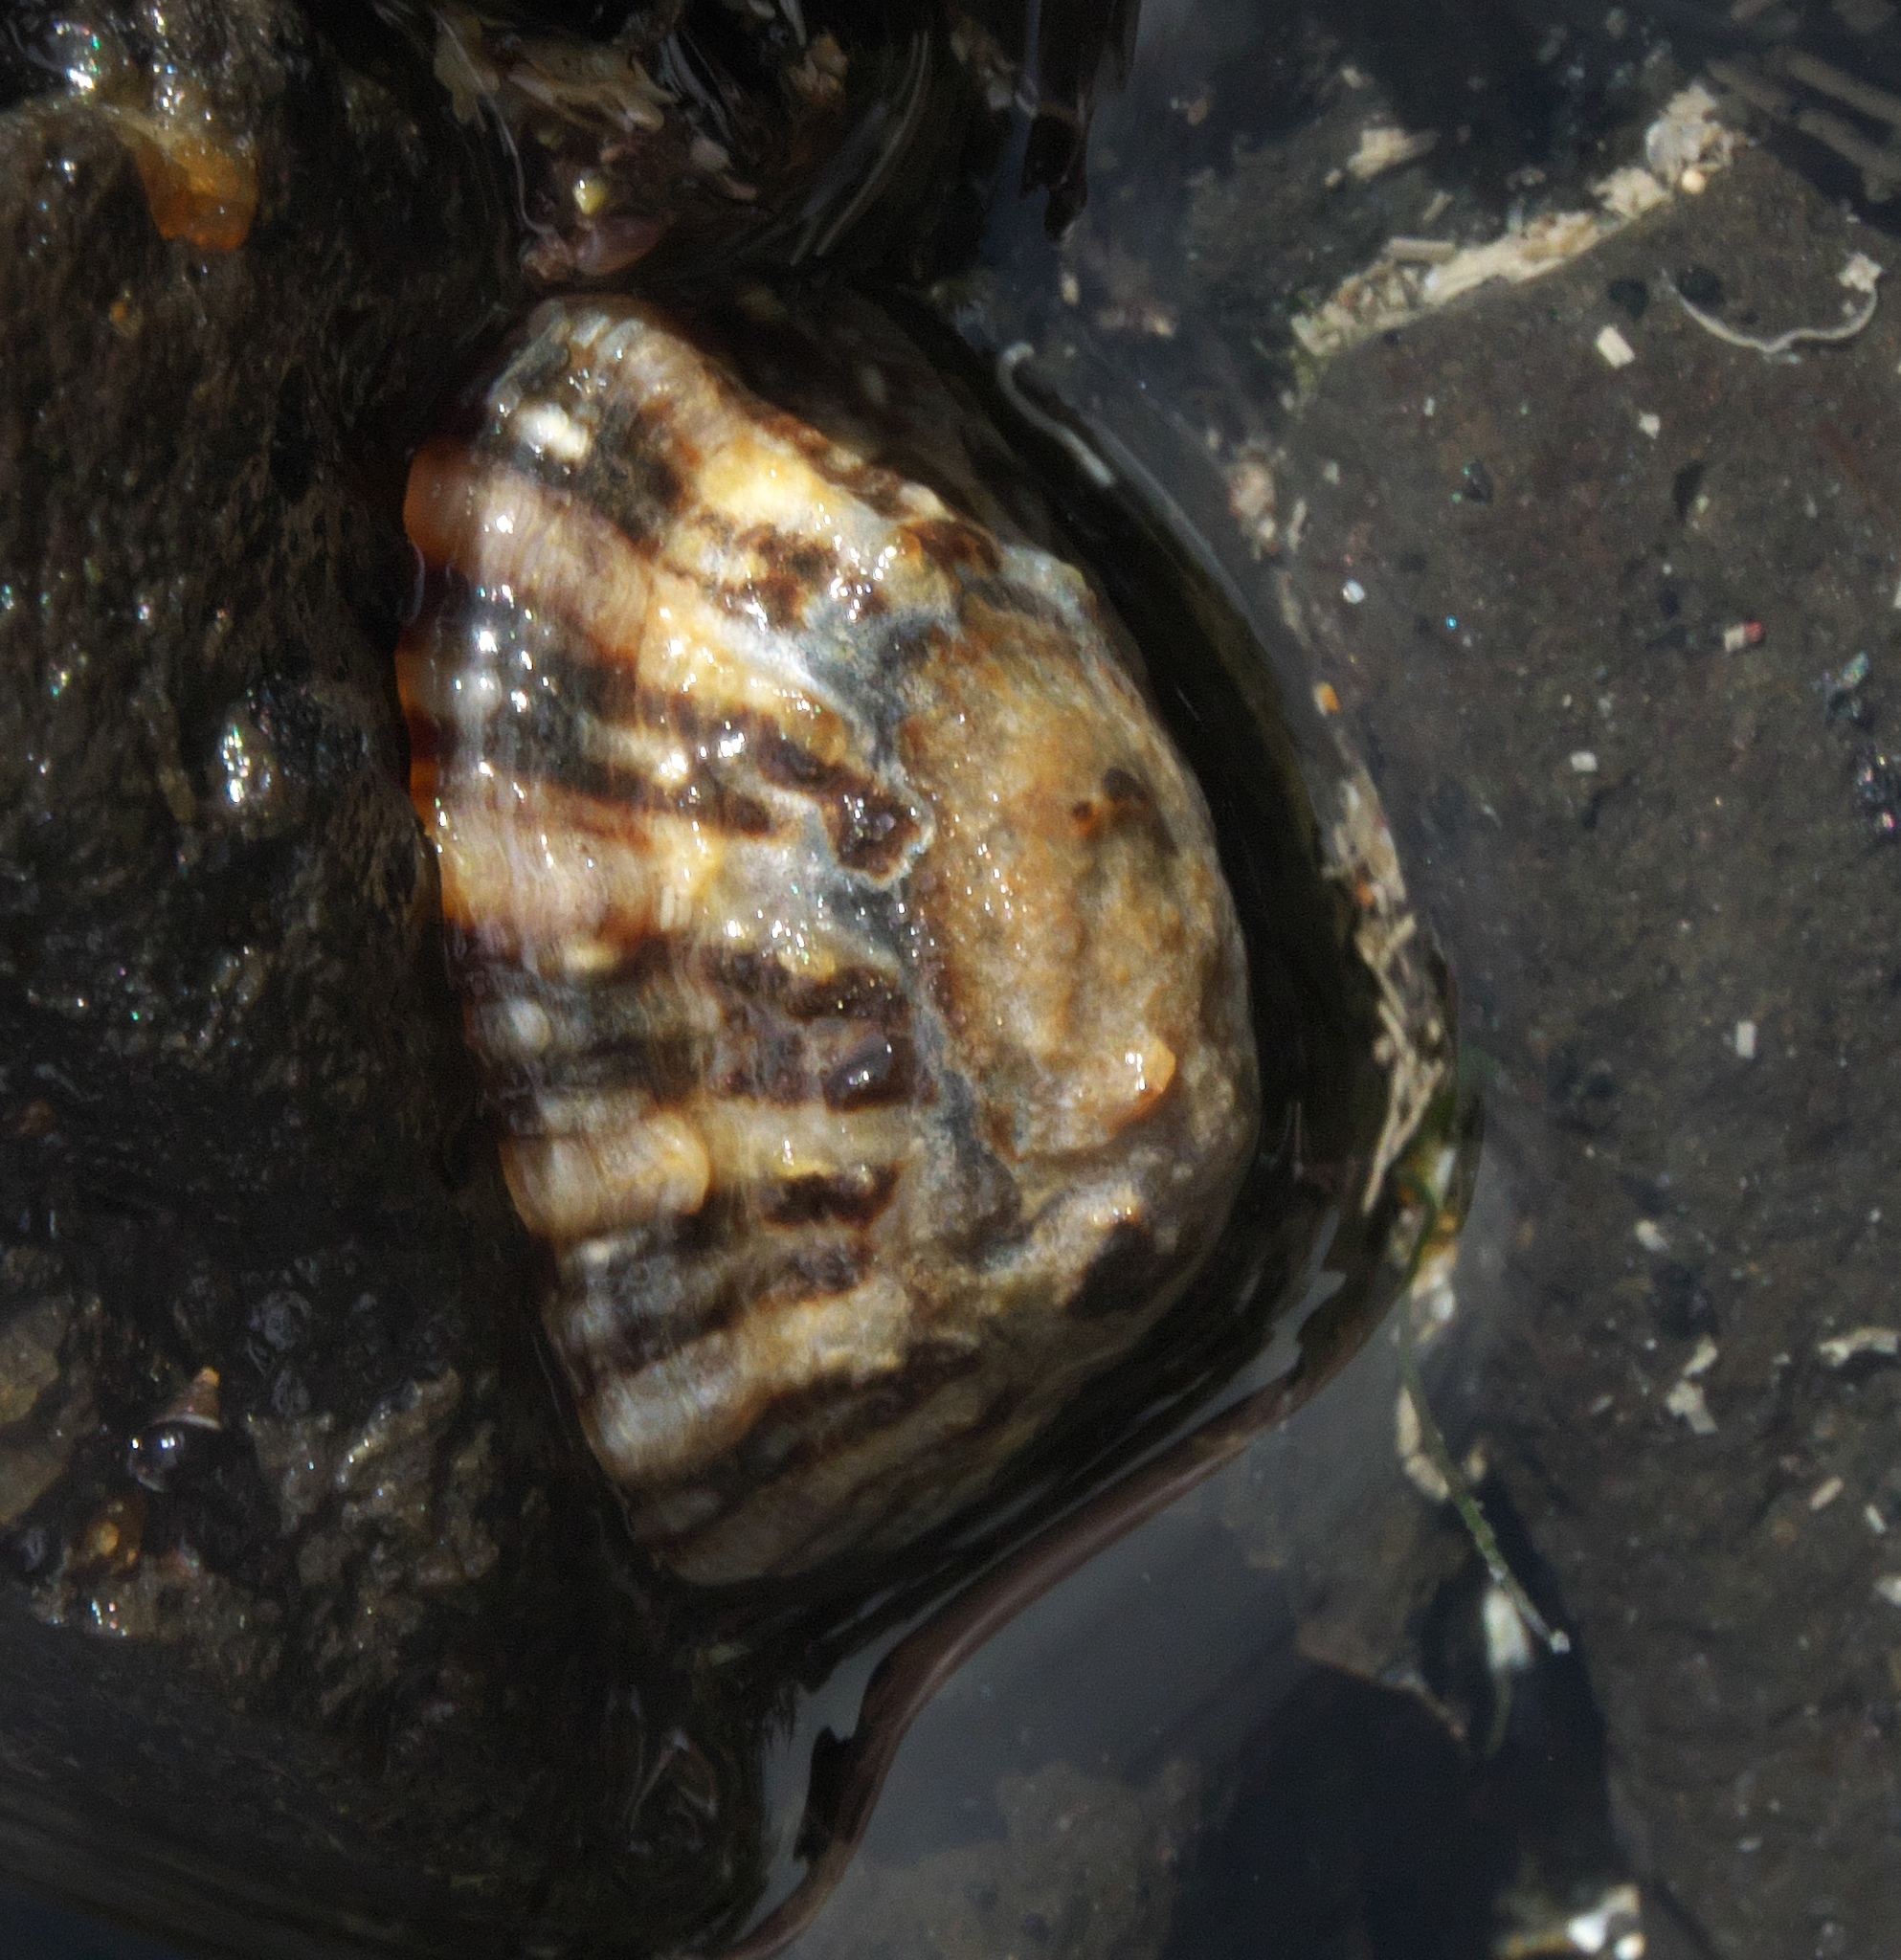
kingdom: Animalia
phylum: Mollusca
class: Gastropoda
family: Nacellidae
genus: Cellana
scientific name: Cellana ornata
